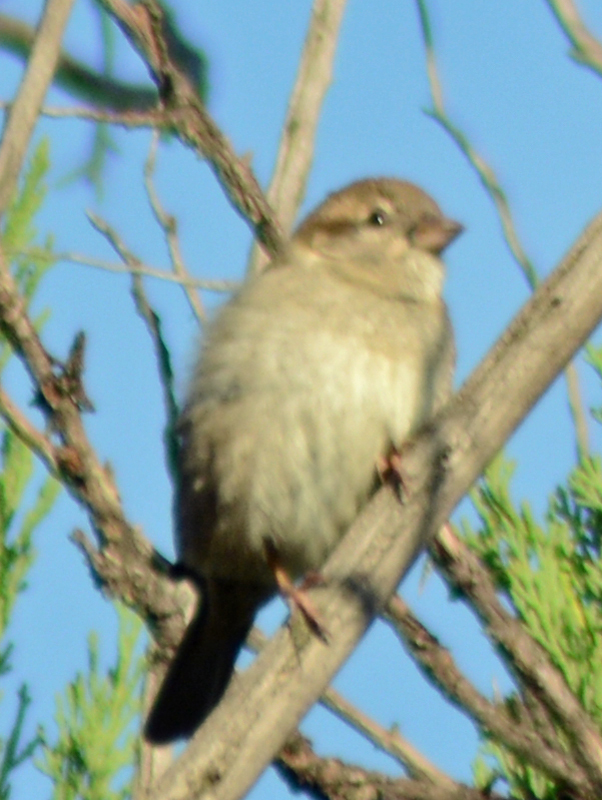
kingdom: Animalia
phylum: Chordata
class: Aves
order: Passeriformes
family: Passeridae
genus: Passer
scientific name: Passer domesticus
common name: House sparrow
